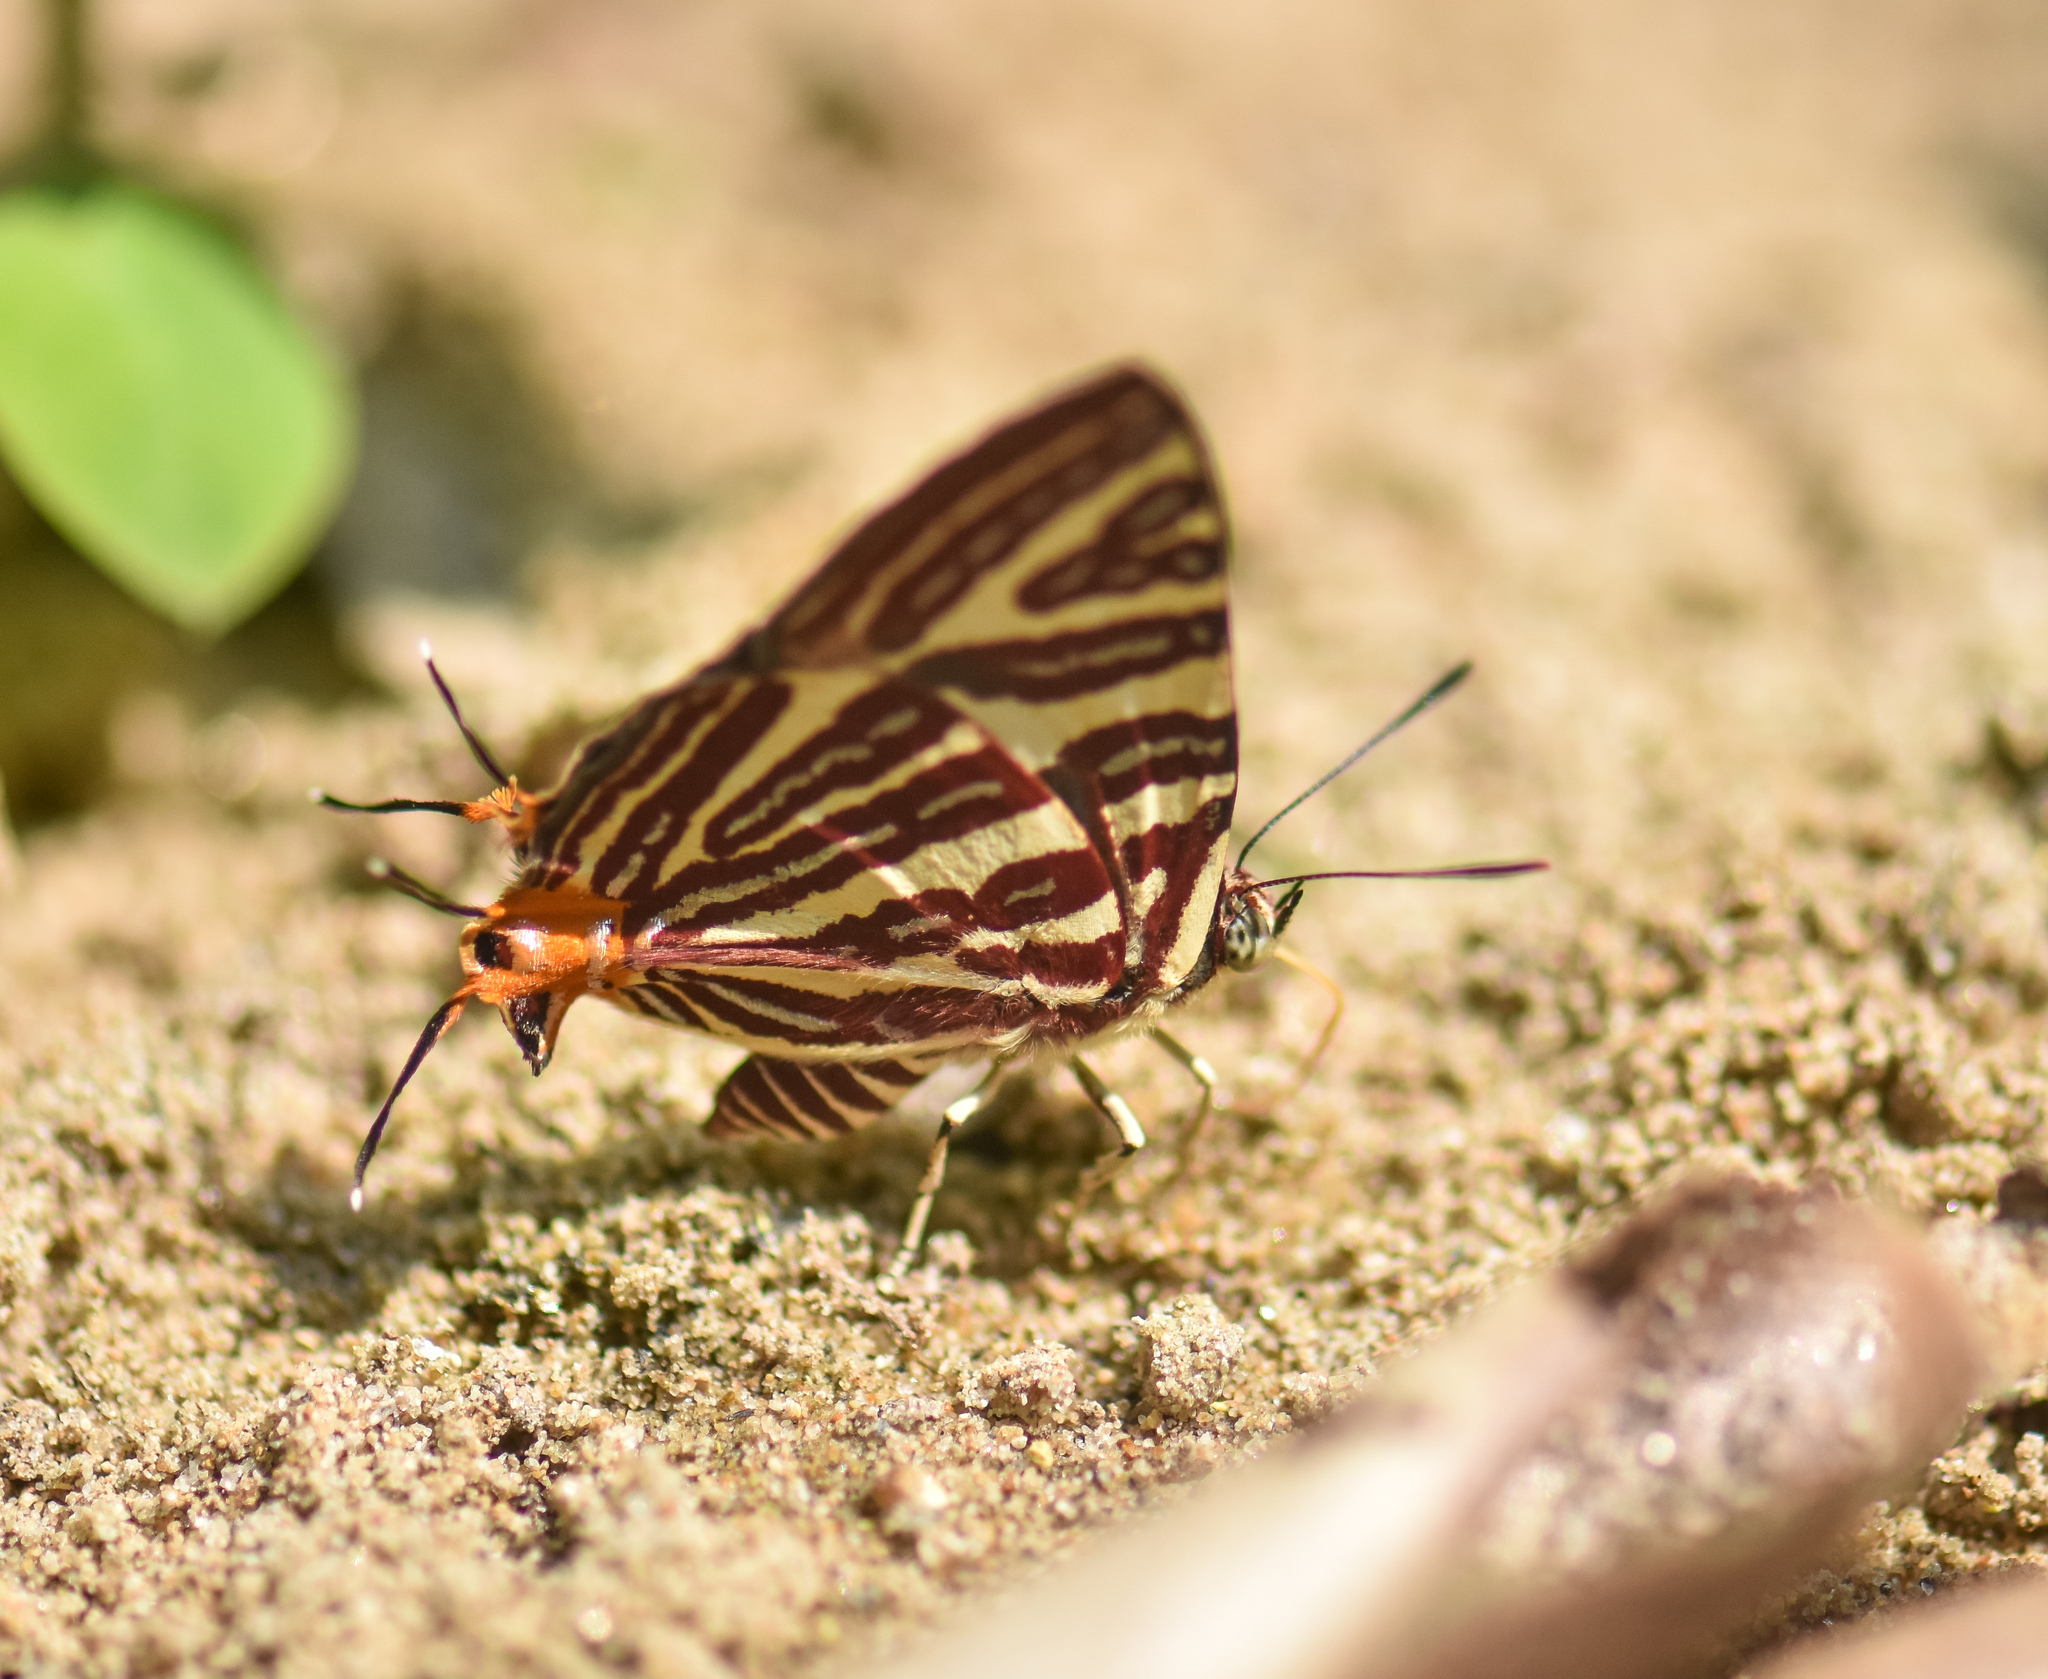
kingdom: Animalia
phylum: Arthropoda
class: Insecta
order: Lepidoptera
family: Lycaenidae
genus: Cigaritis
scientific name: Cigaritis lohita
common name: Long-banded silverline
